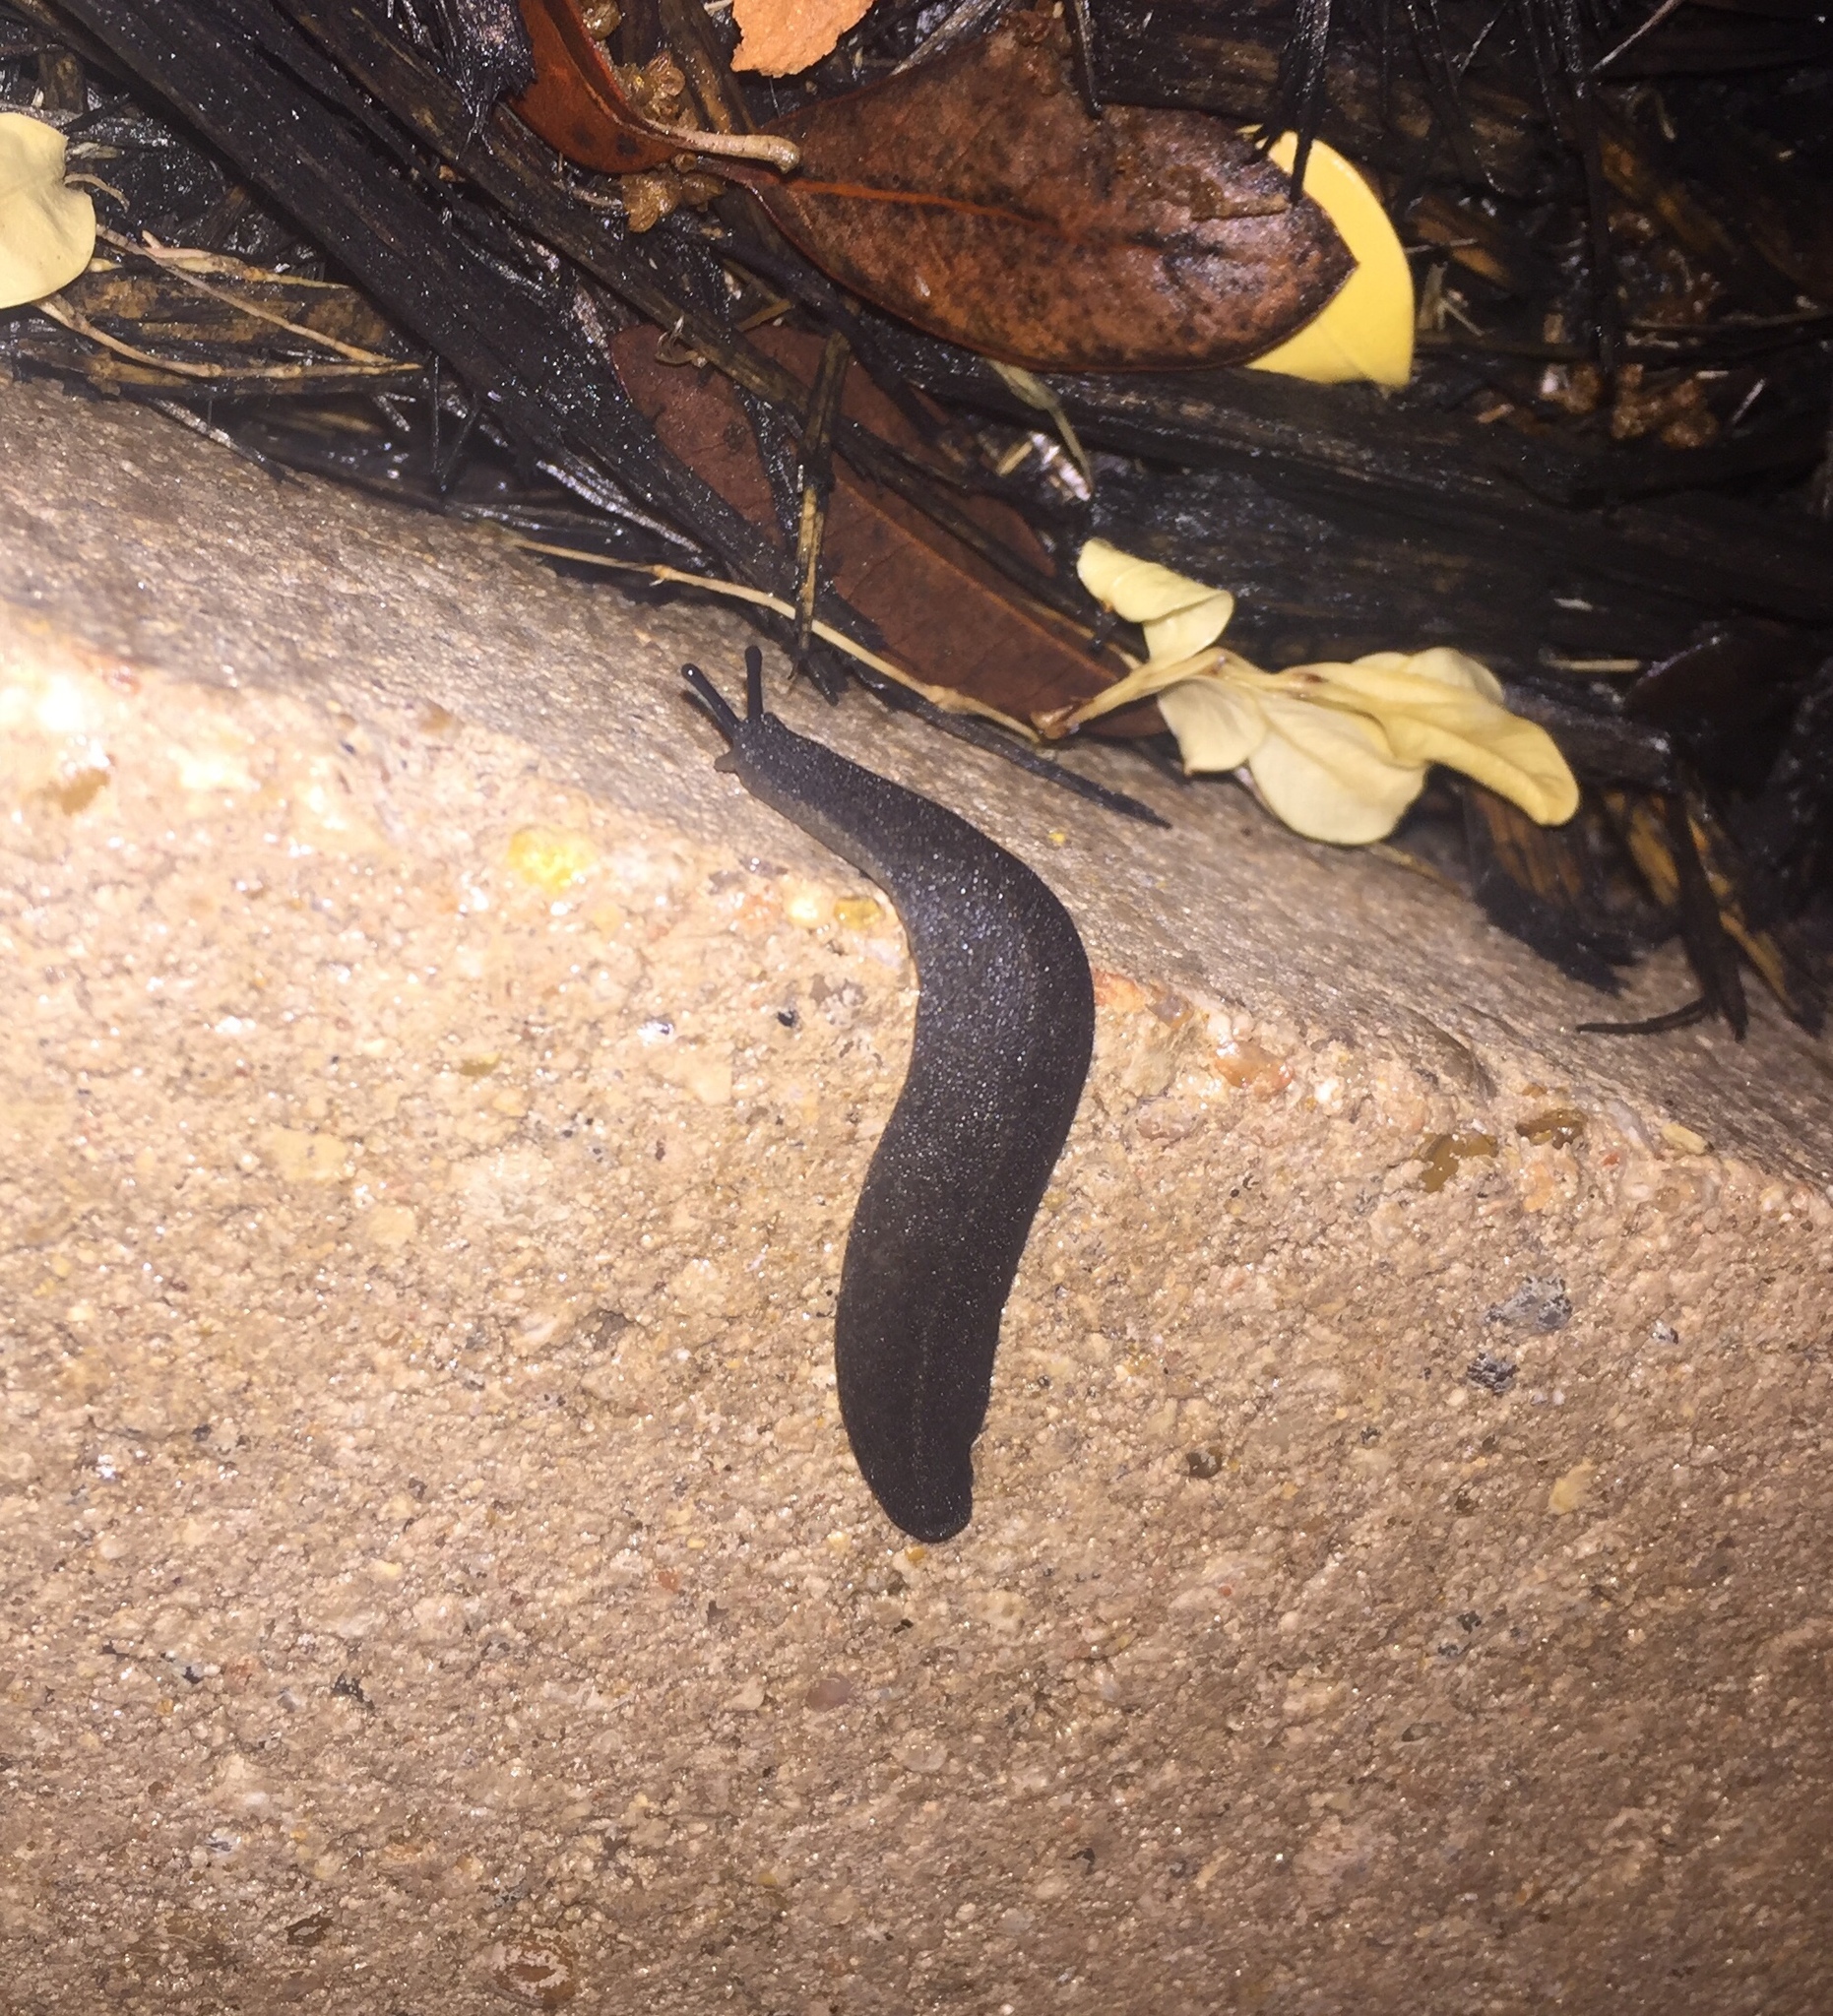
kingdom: Animalia
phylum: Mollusca
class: Gastropoda
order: Systellommatophora
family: Veronicellidae
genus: Belocaulus
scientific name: Belocaulus angustipes
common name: Black velvet leatherleaf slug
